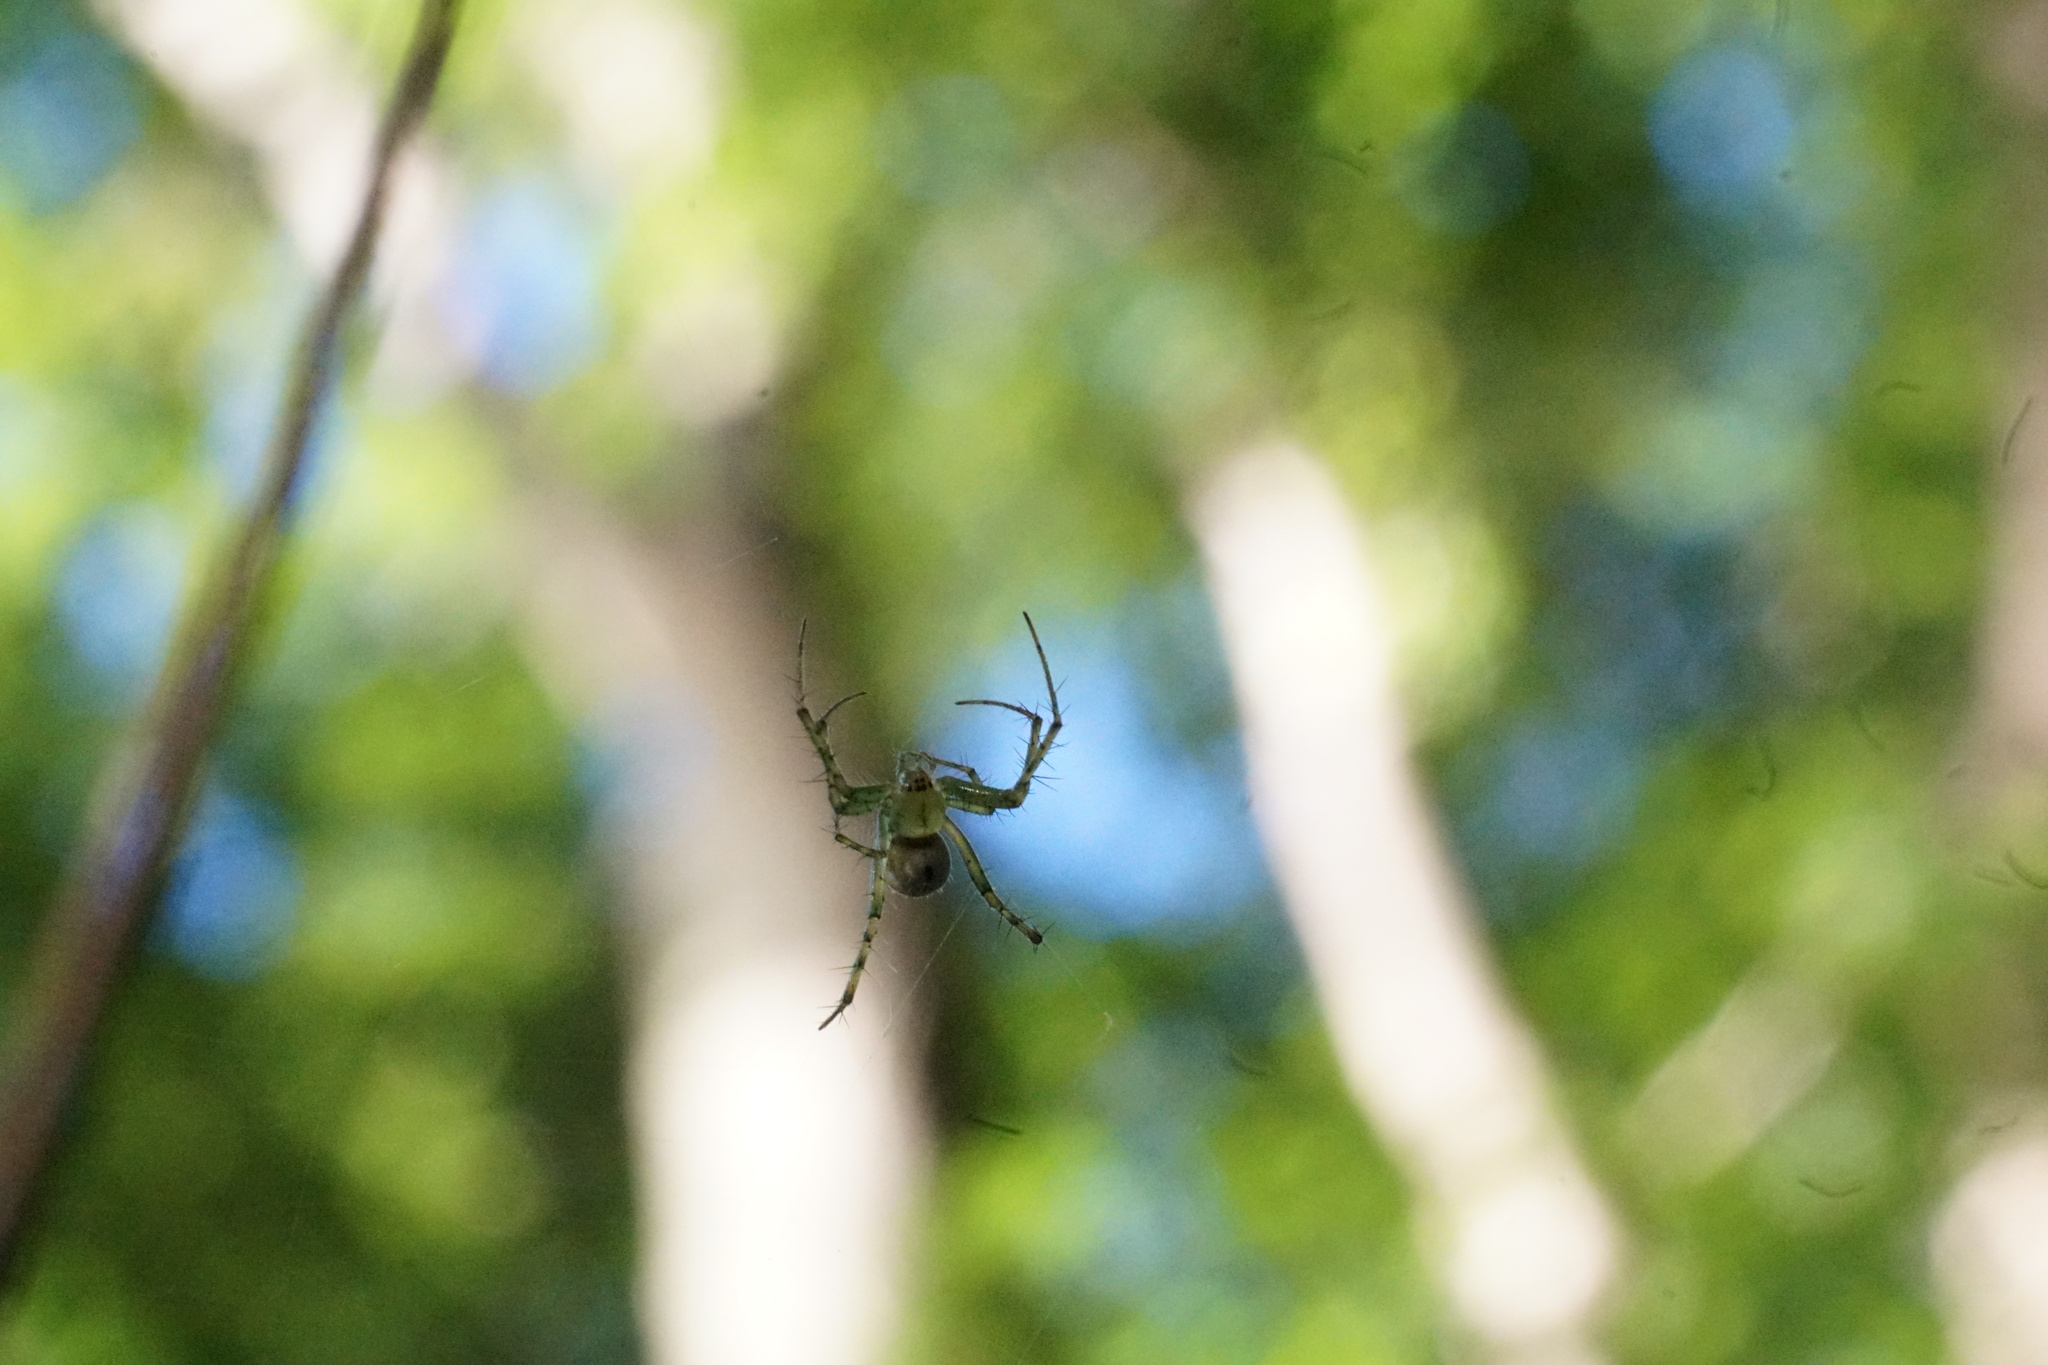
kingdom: Animalia
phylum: Arthropoda
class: Arachnida
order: Araneae
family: Araneidae
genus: Mangora
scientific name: Mangora maculata
